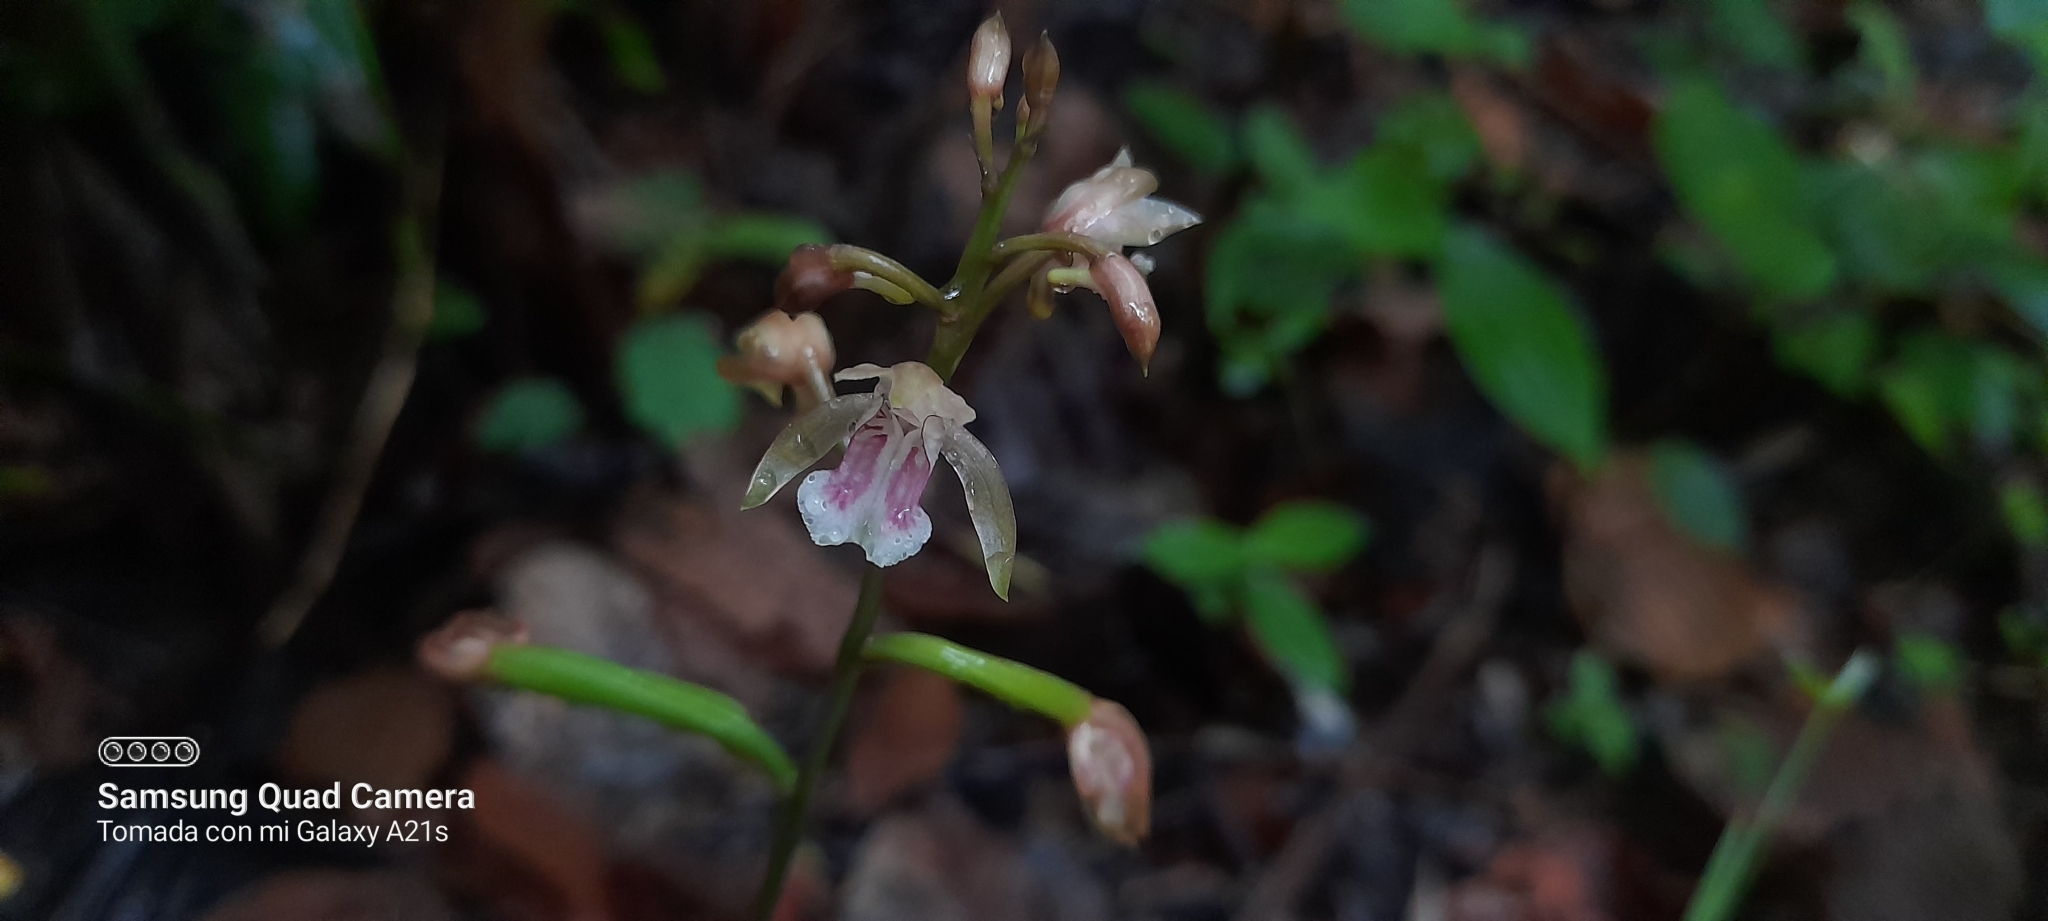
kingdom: Plantae
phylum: Tracheophyta
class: Liliopsida
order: Asparagales
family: Orchidaceae
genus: Eulophia
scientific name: Eulophia maculata
